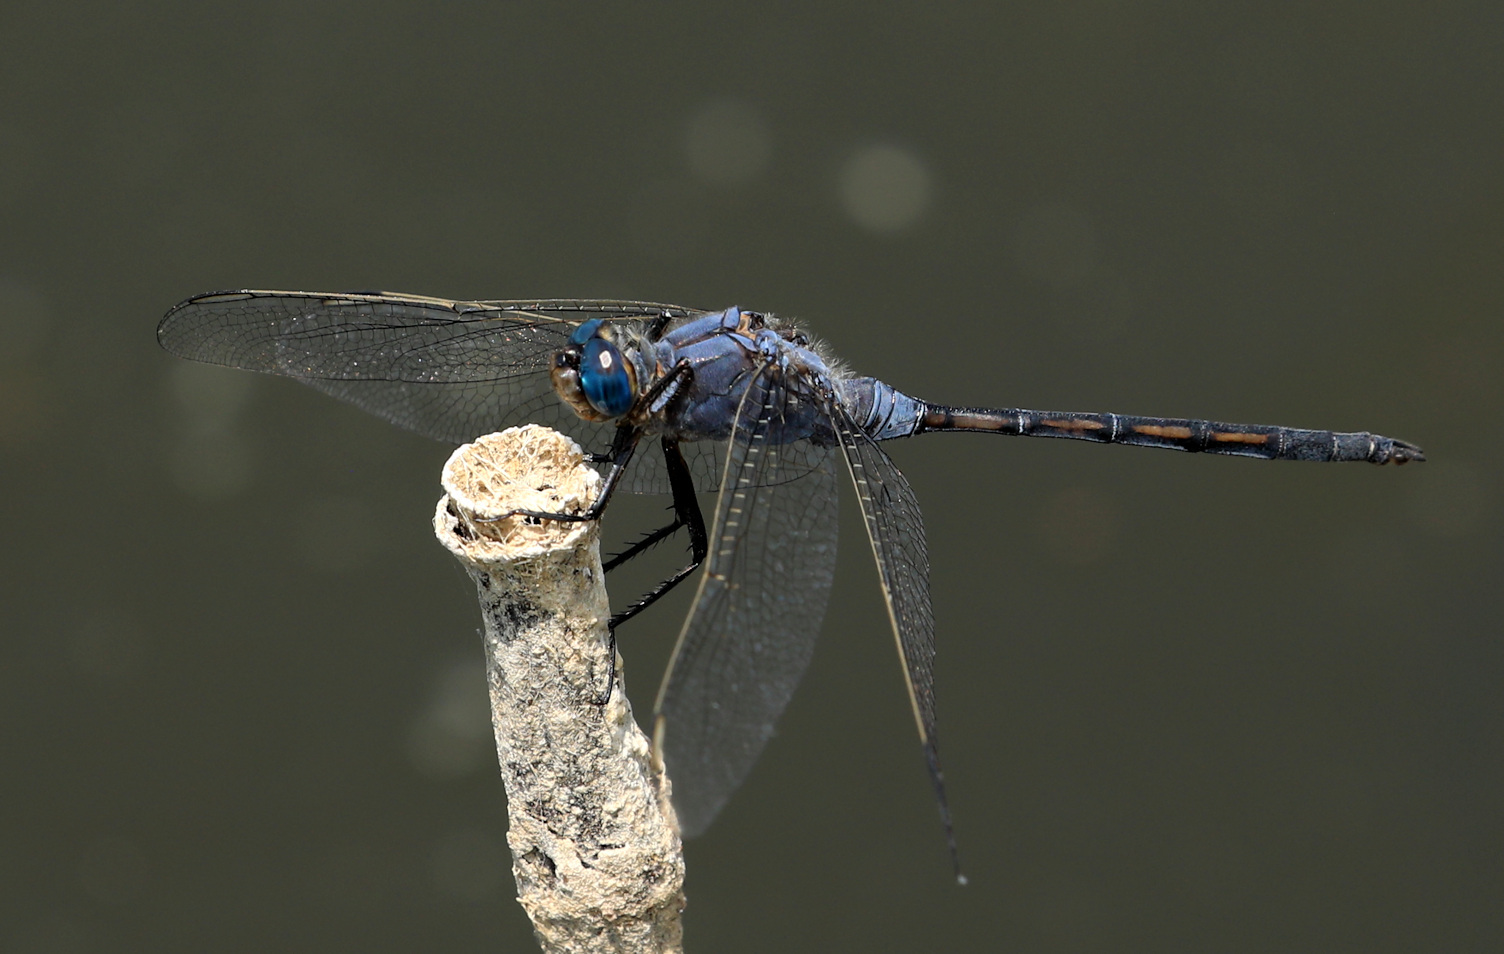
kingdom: Animalia
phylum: Arthropoda
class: Insecta
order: Odonata
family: Libellulidae
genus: Orthetrum
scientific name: Orthetrum trinacria
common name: Long skimmer
